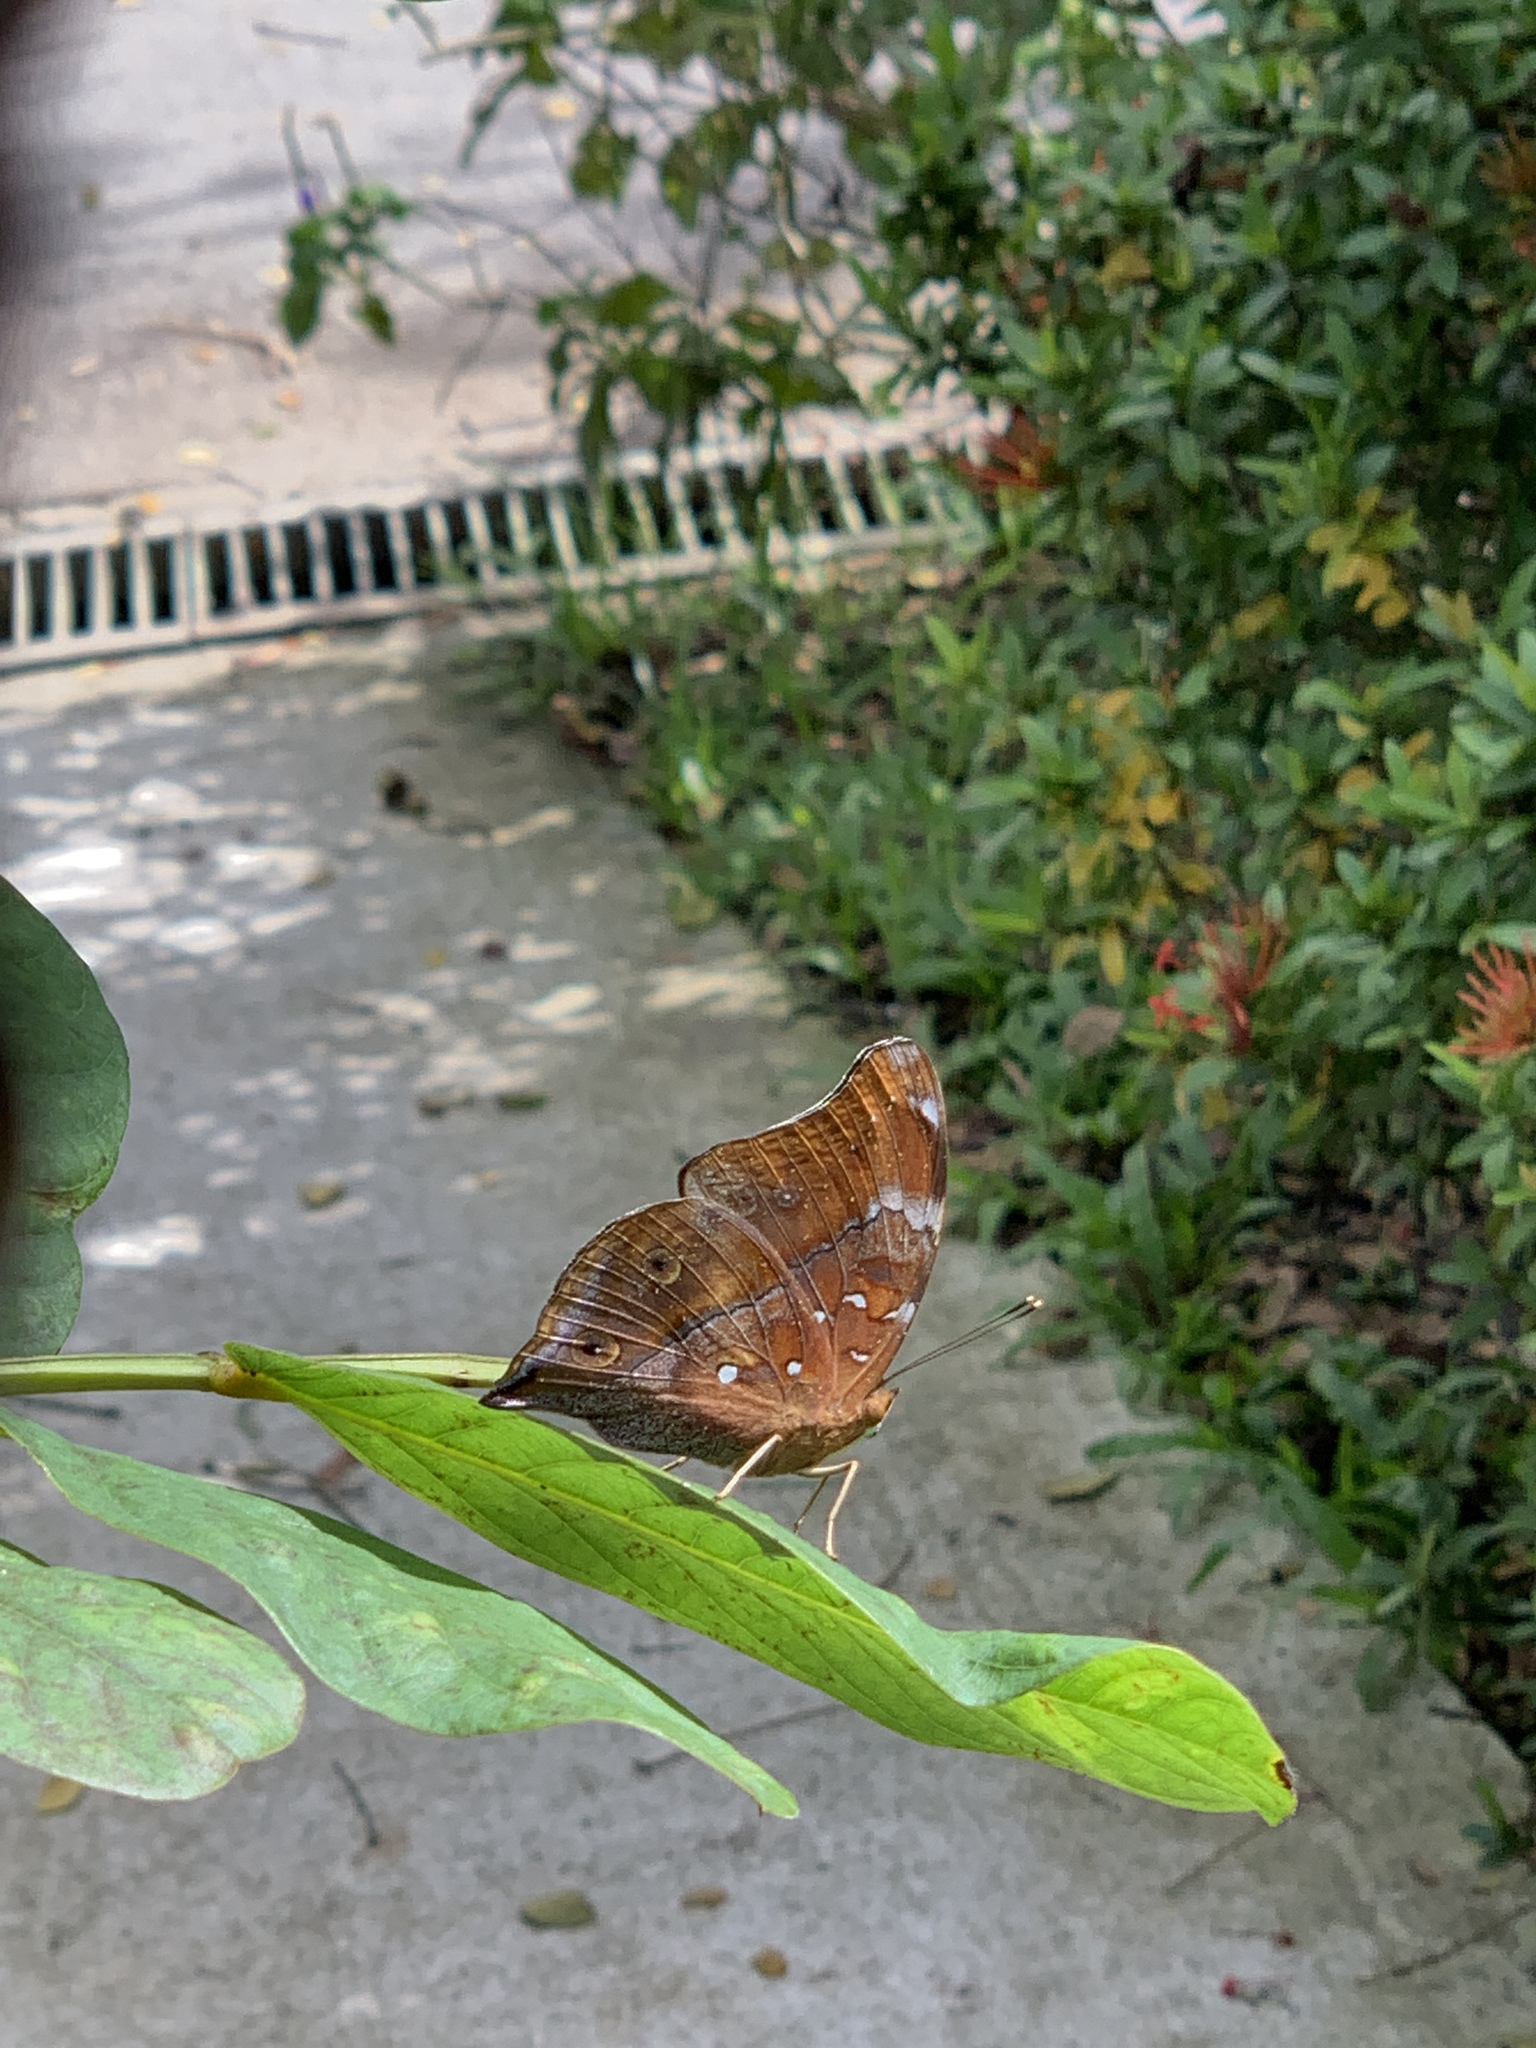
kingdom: Animalia
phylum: Arthropoda
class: Insecta
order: Lepidoptera
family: Nymphalidae
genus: Doleschallia
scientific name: Doleschallia bisaltide
